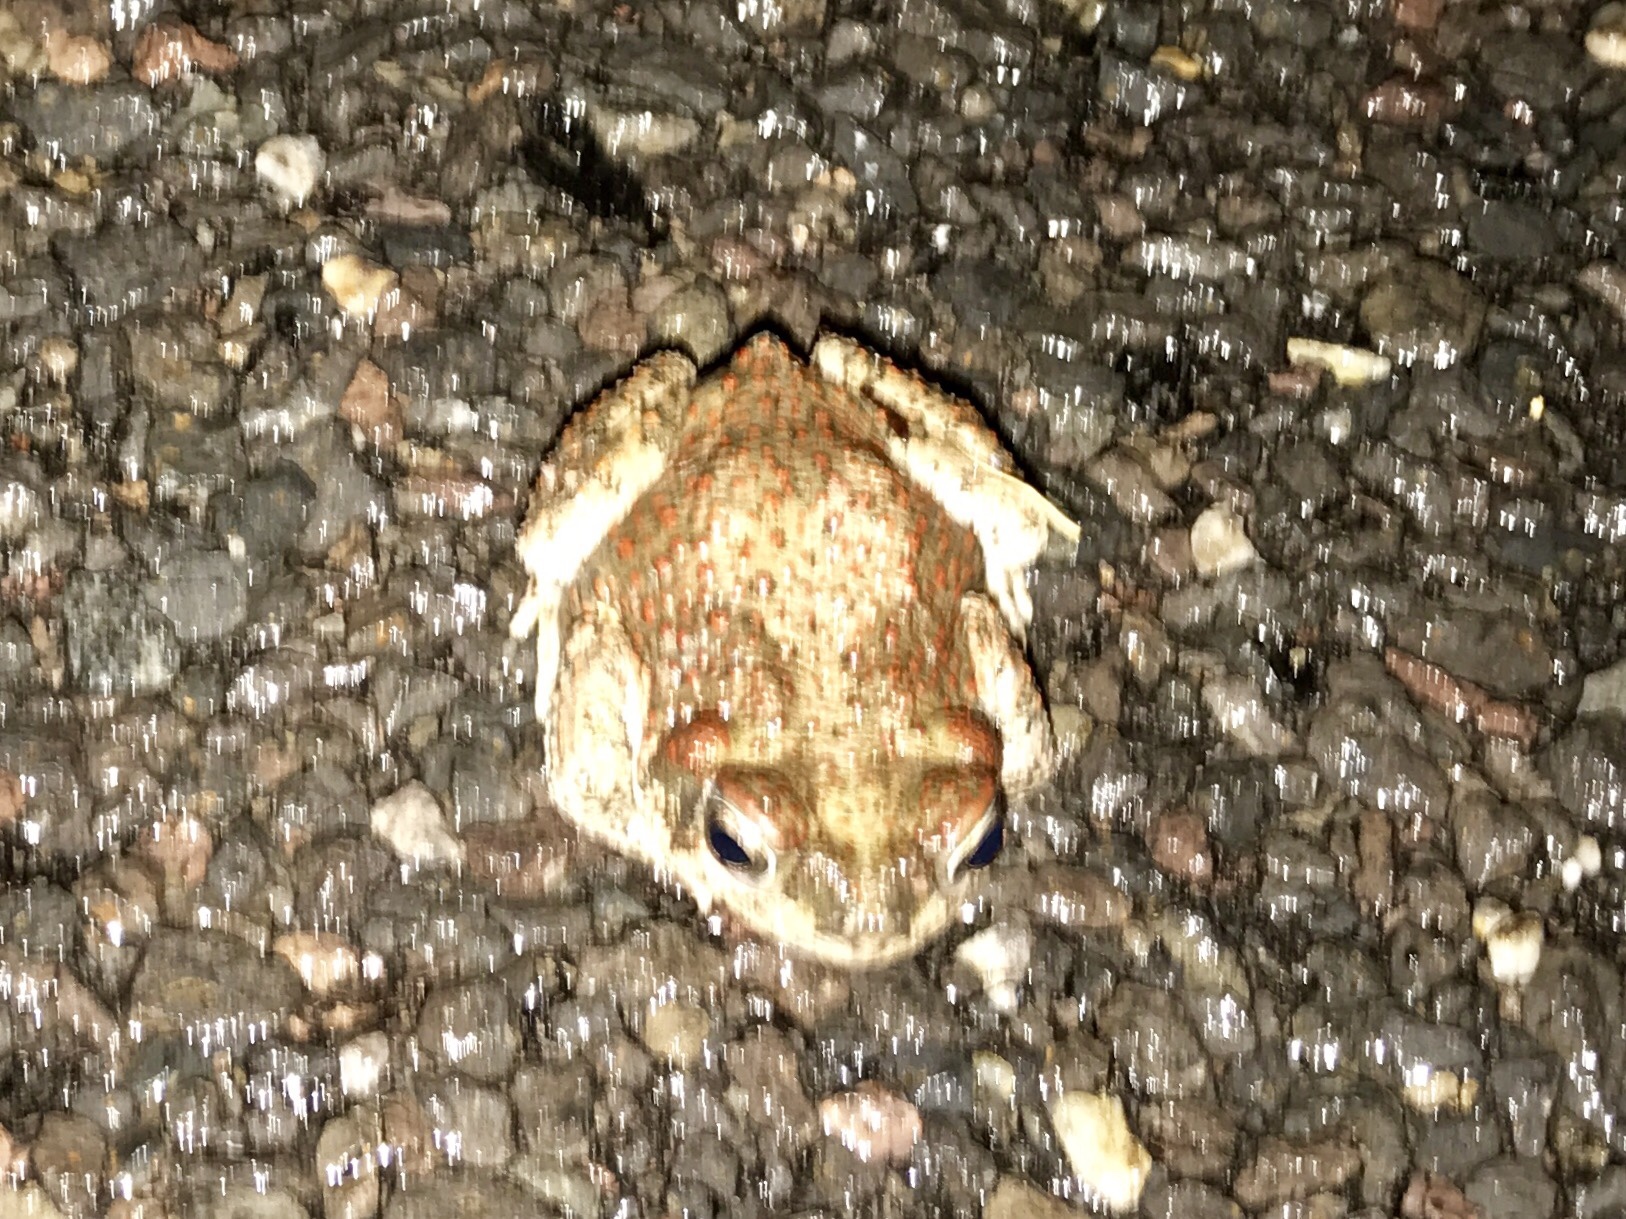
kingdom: Animalia
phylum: Chordata
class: Amphibia
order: Anura
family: Bufonidae
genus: Anaxyrus
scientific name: Anaxyrus punctatus
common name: Red-spotted toad
